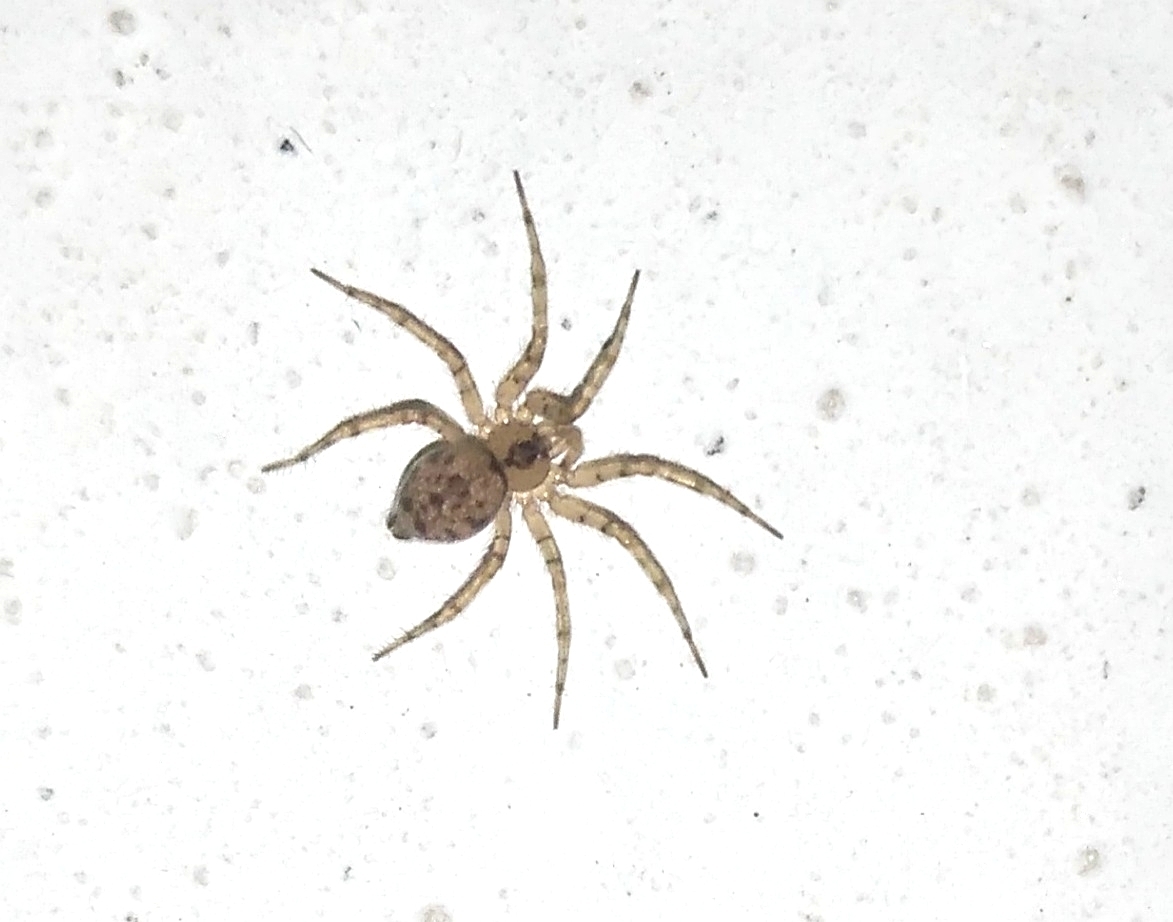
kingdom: Animalia
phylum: Arthropoda
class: Arachnida
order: Araneae
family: Oecobiidae
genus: Oecobius
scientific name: Oecobius navus
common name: Flatmesh weaver
